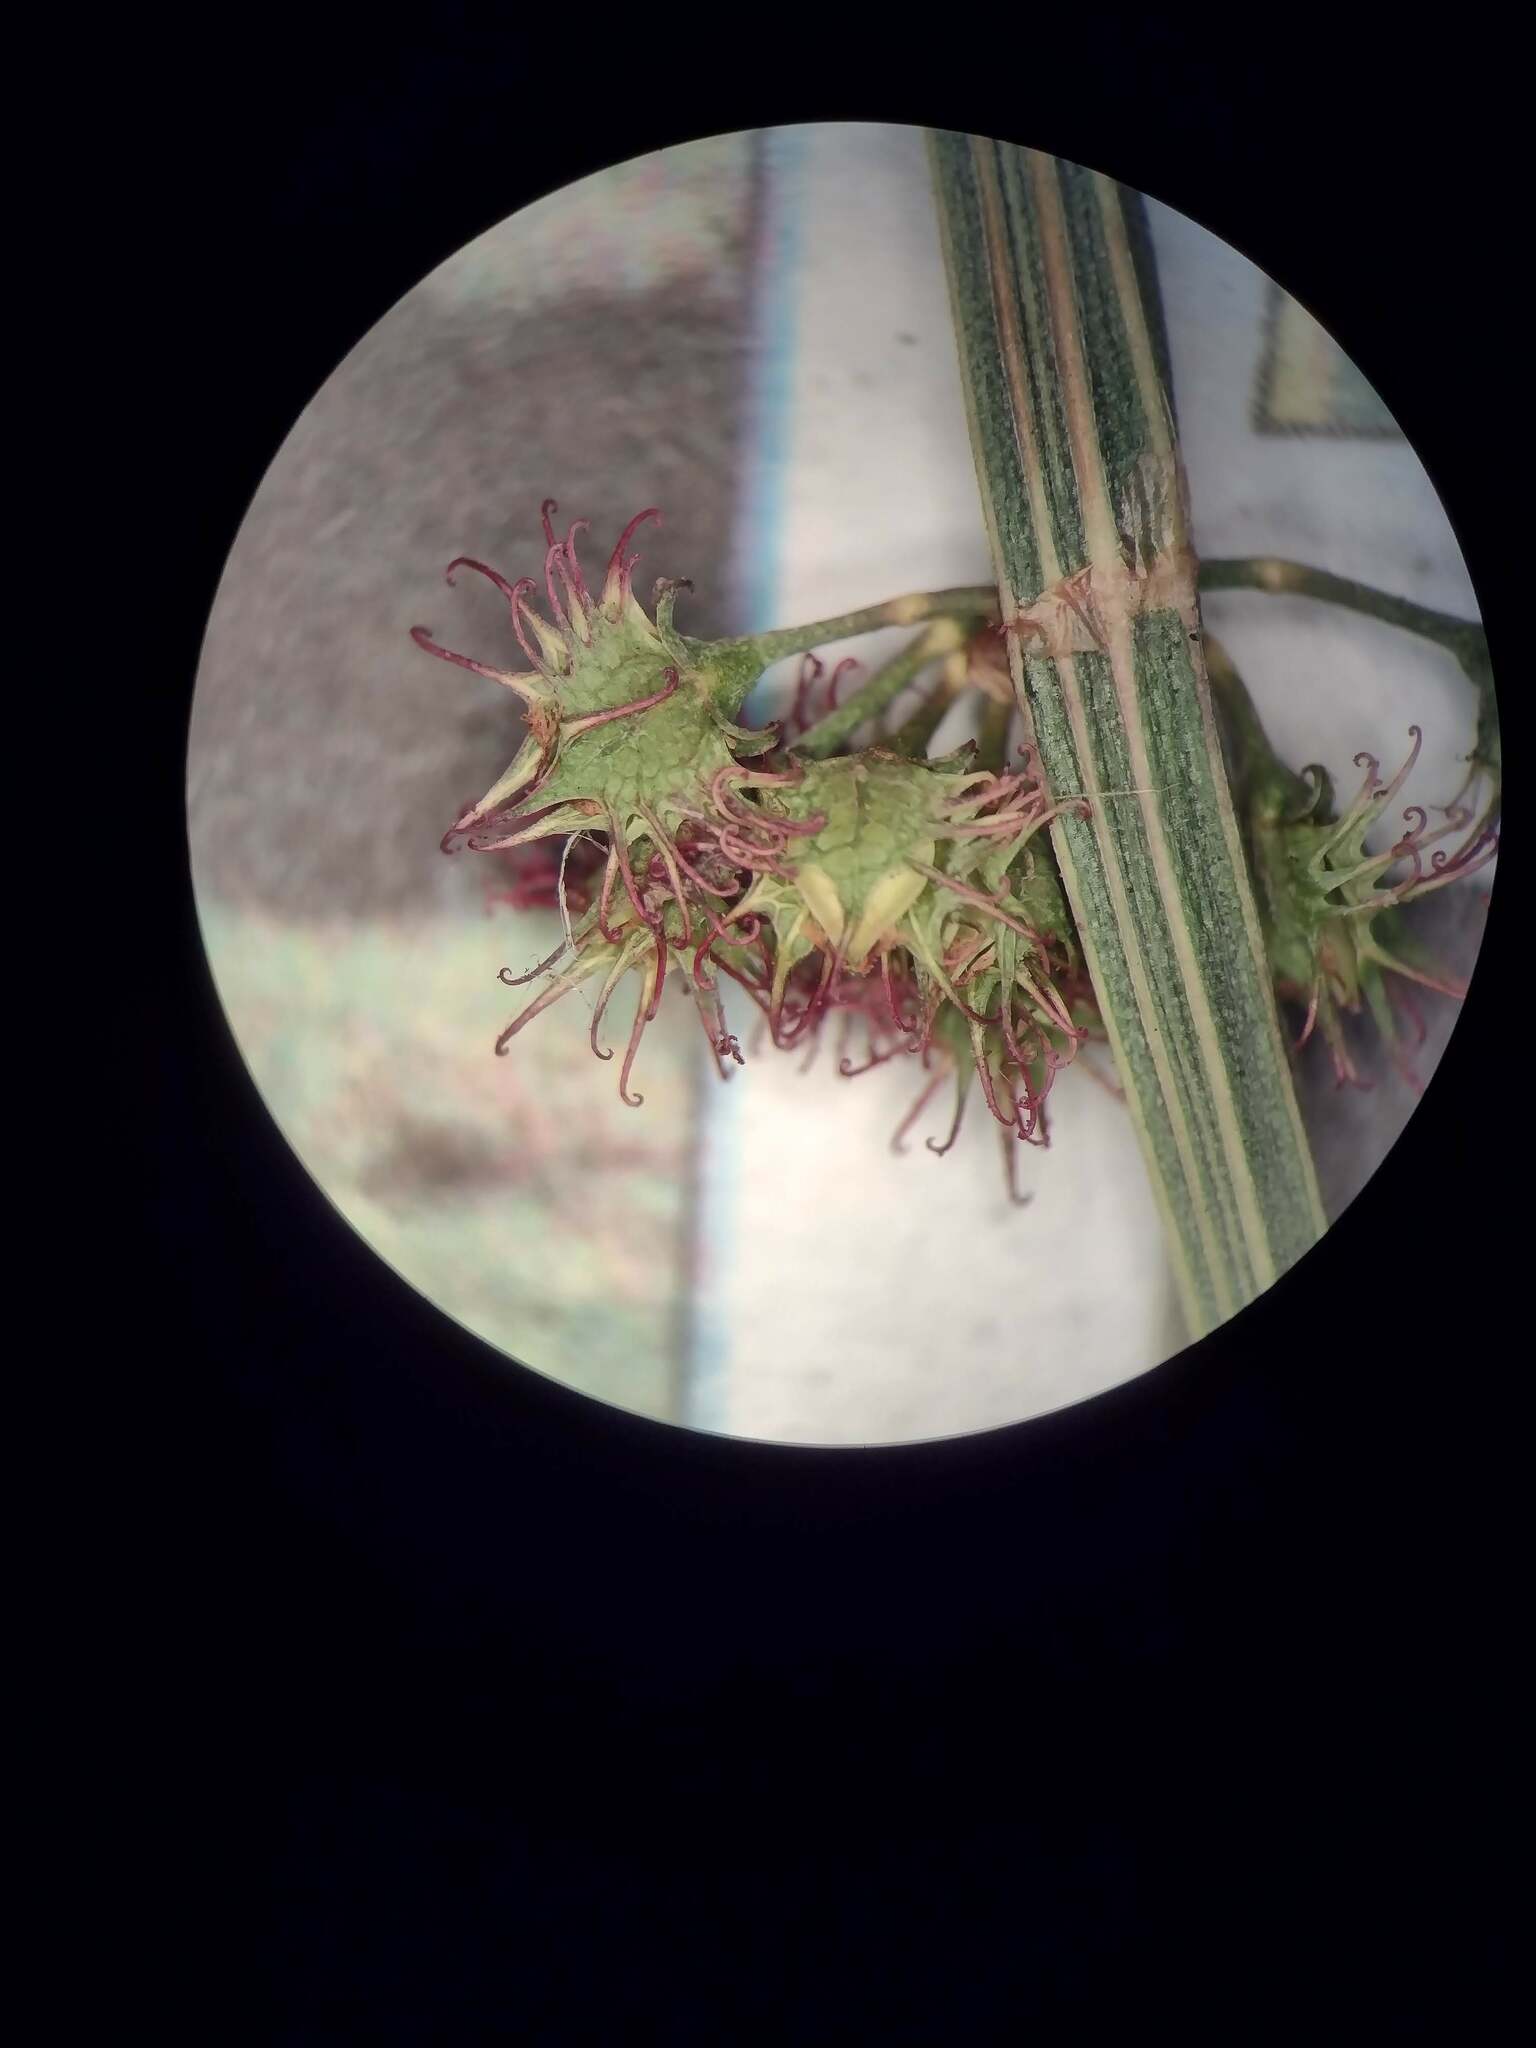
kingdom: Plantae
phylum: Tracheophyta
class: Magnoliopsida
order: Caryophyllales
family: Polygonaceae
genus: Rumex
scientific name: Rumex brownii
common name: Hooked dock
